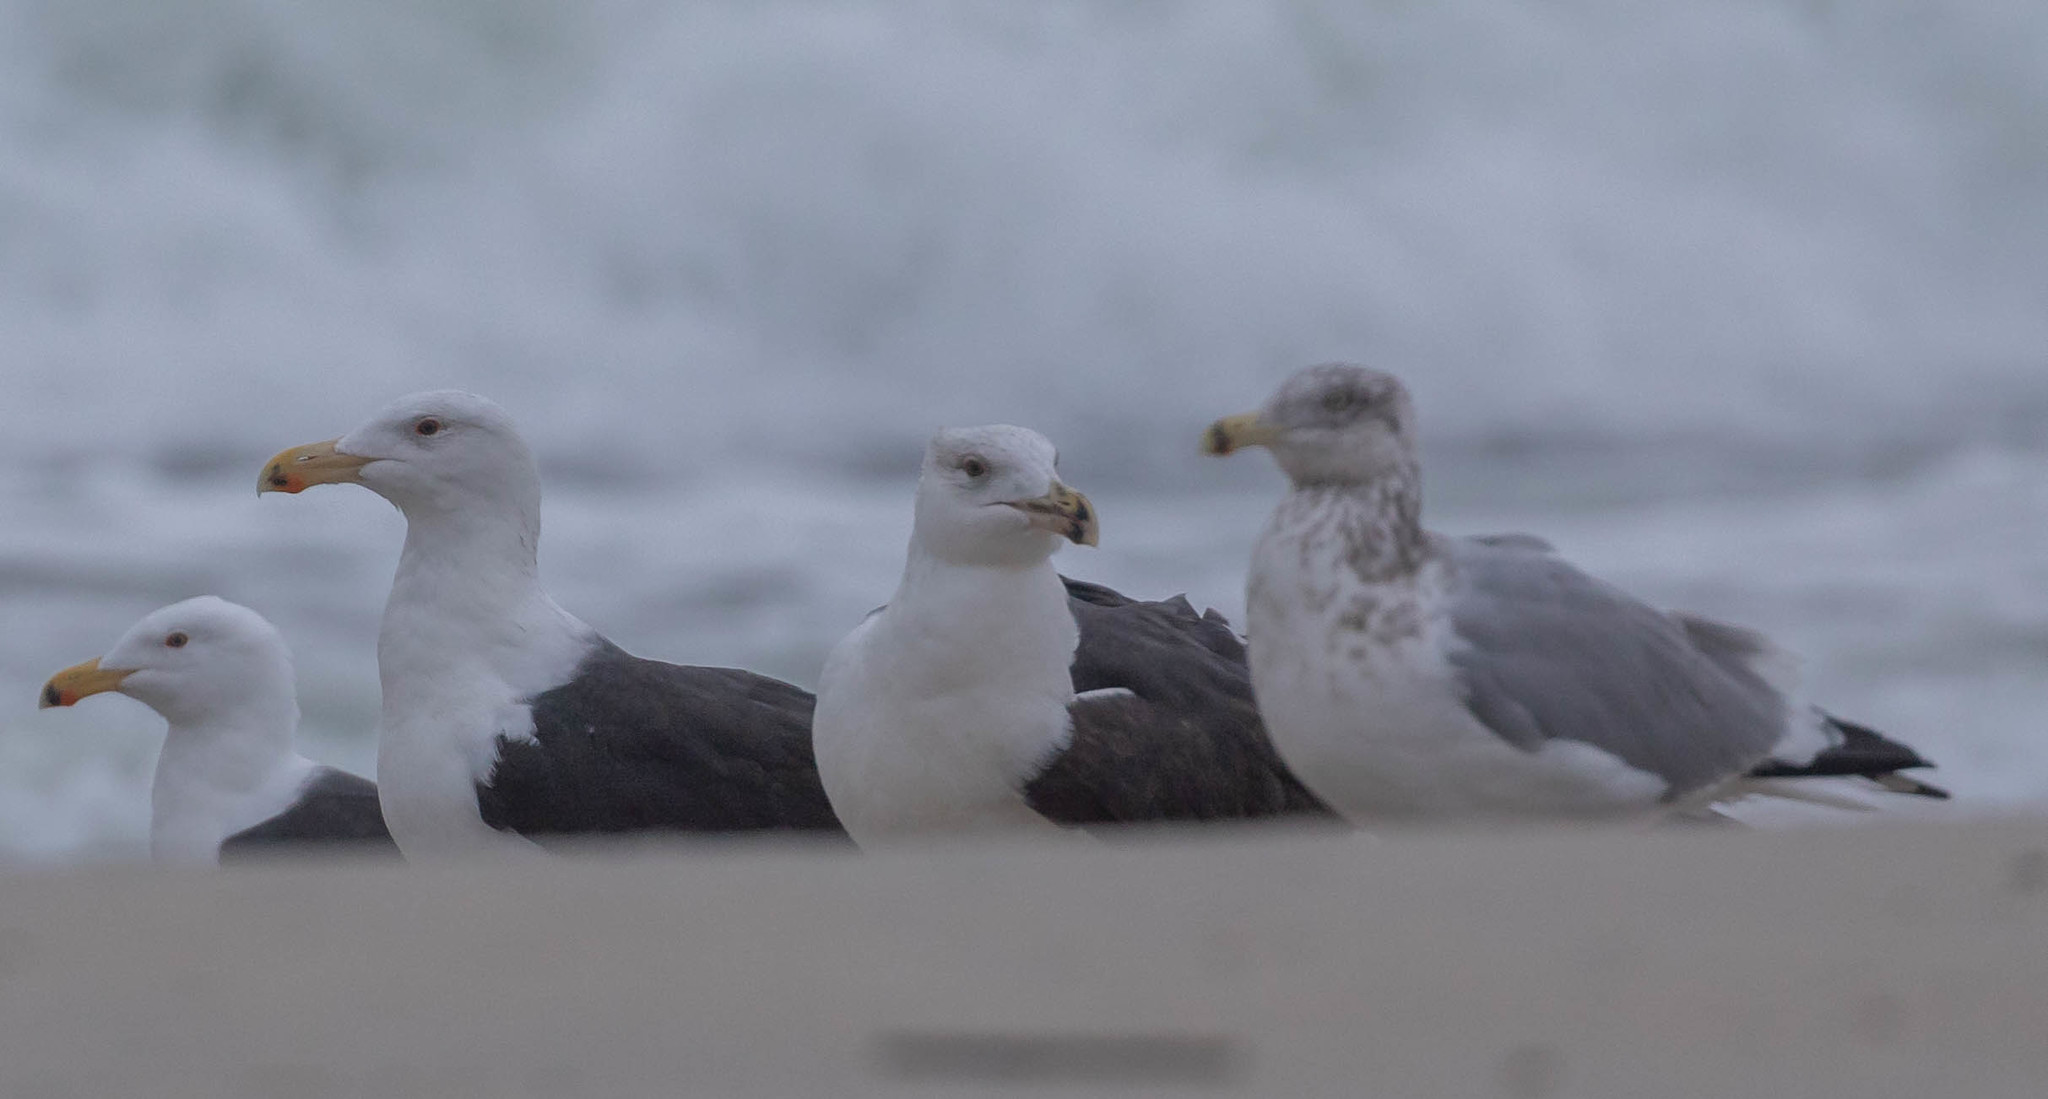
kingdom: Animalia
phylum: Chordata
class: Aves
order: Charadriiformes
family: Laridae
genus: Larus
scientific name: Larus marinus
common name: Great black-backed gull
